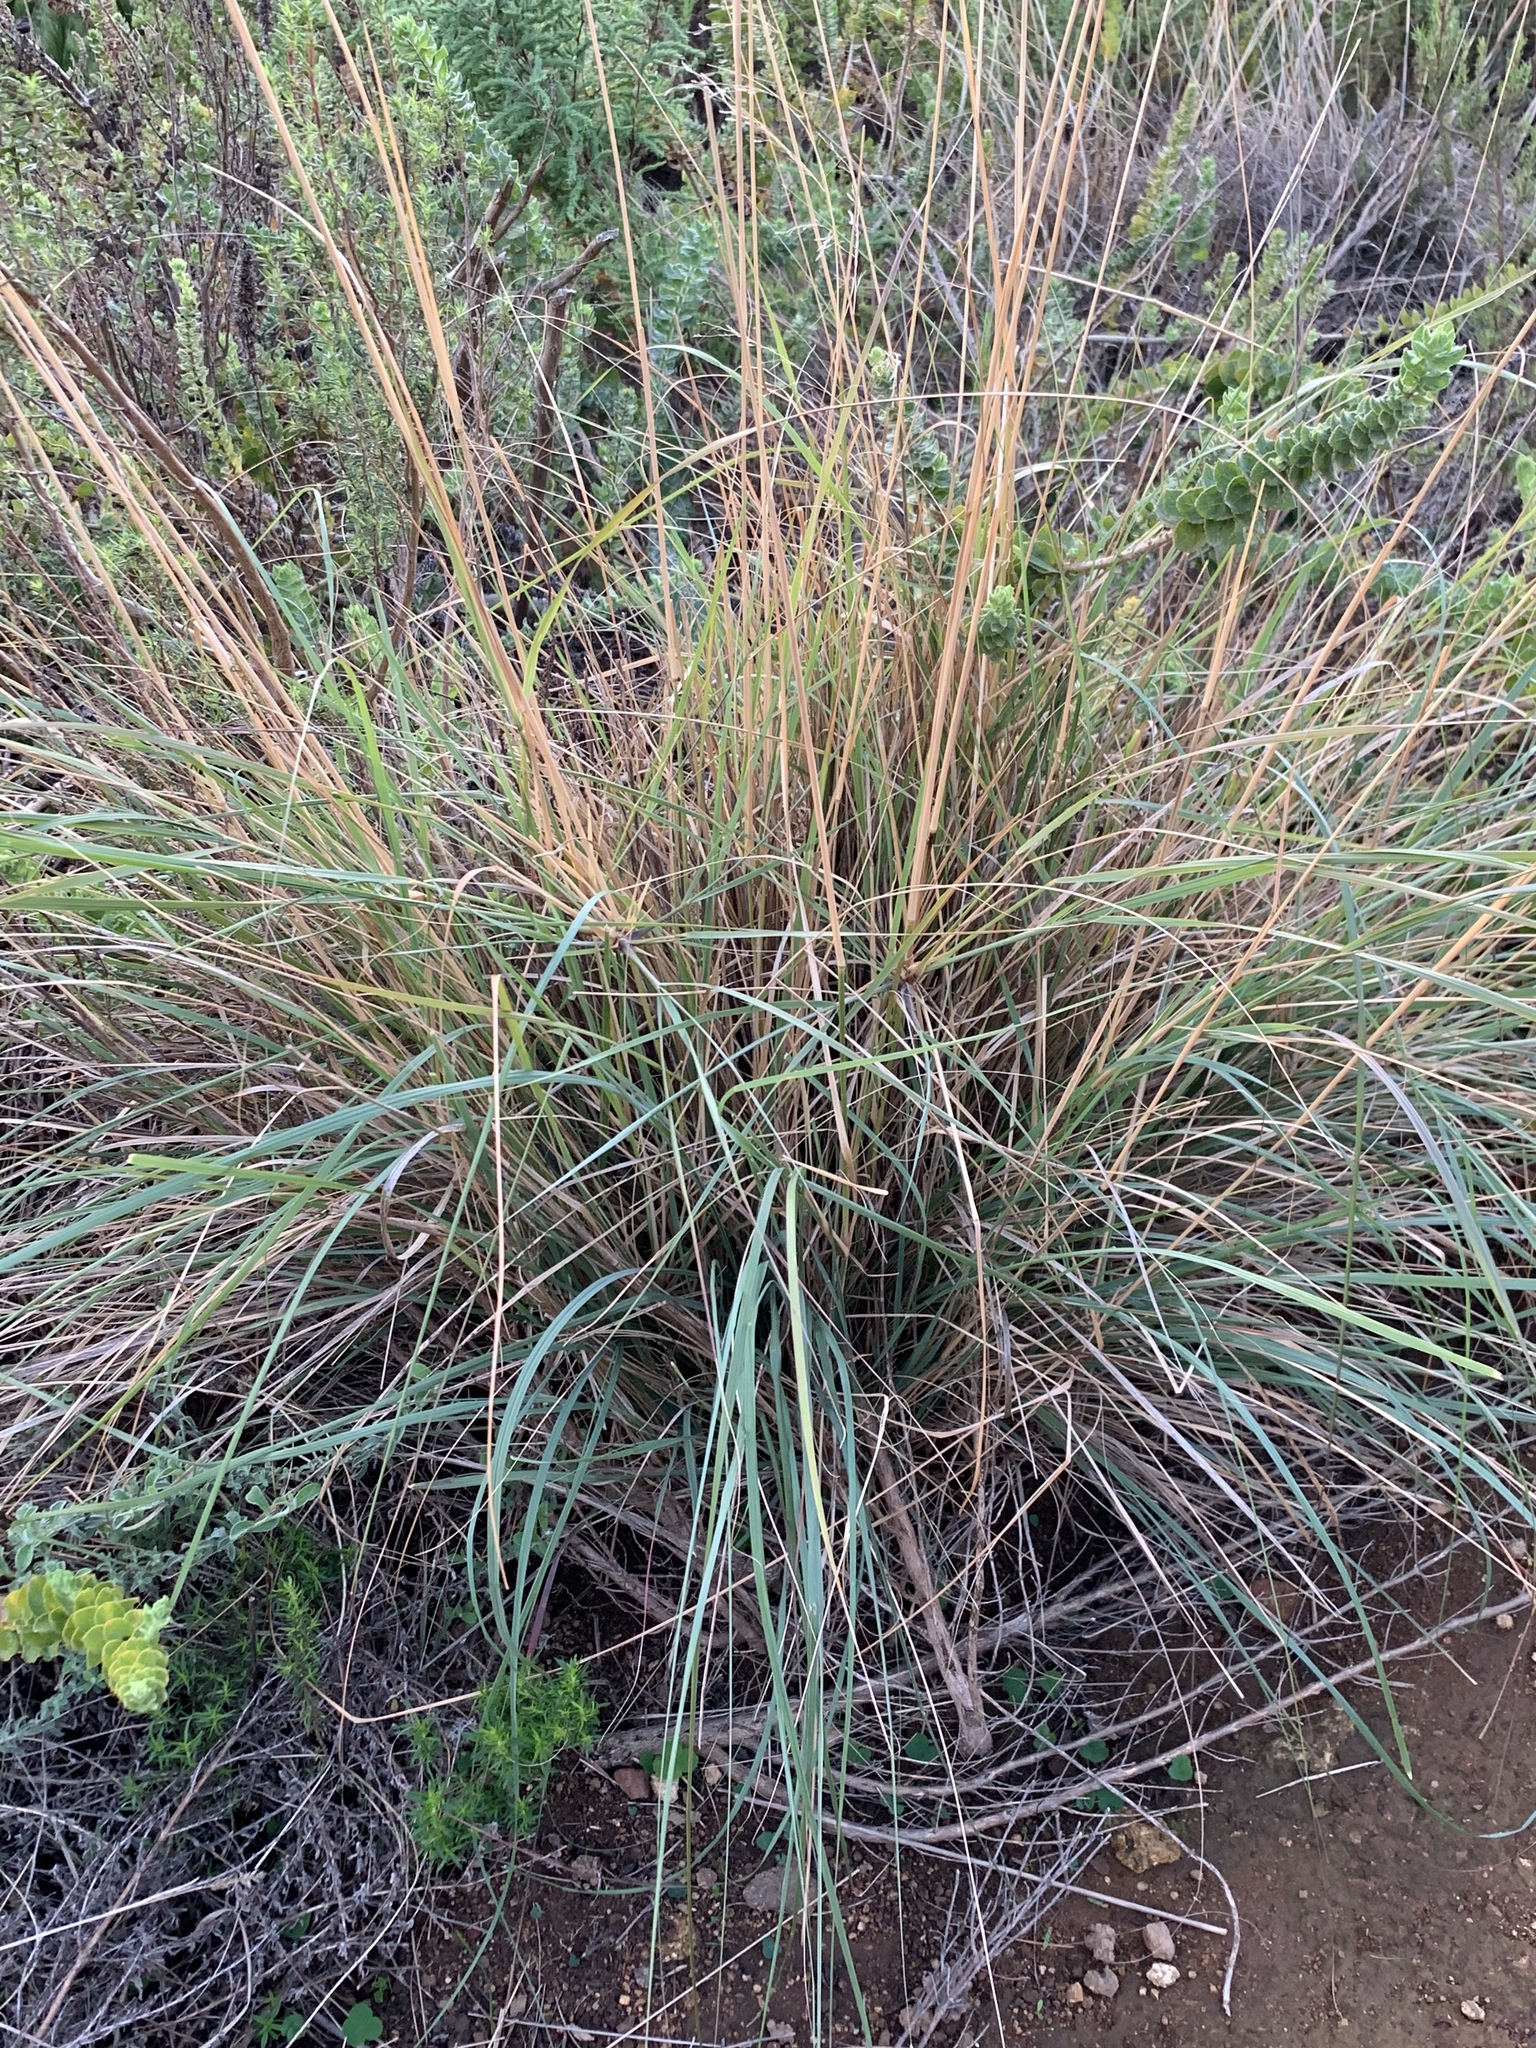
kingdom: Plantae
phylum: Tracheophyta
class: Liliopsida
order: Poales
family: Poaceae
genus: Eragrostis
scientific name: Eragrostis curvula
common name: African love-grass
